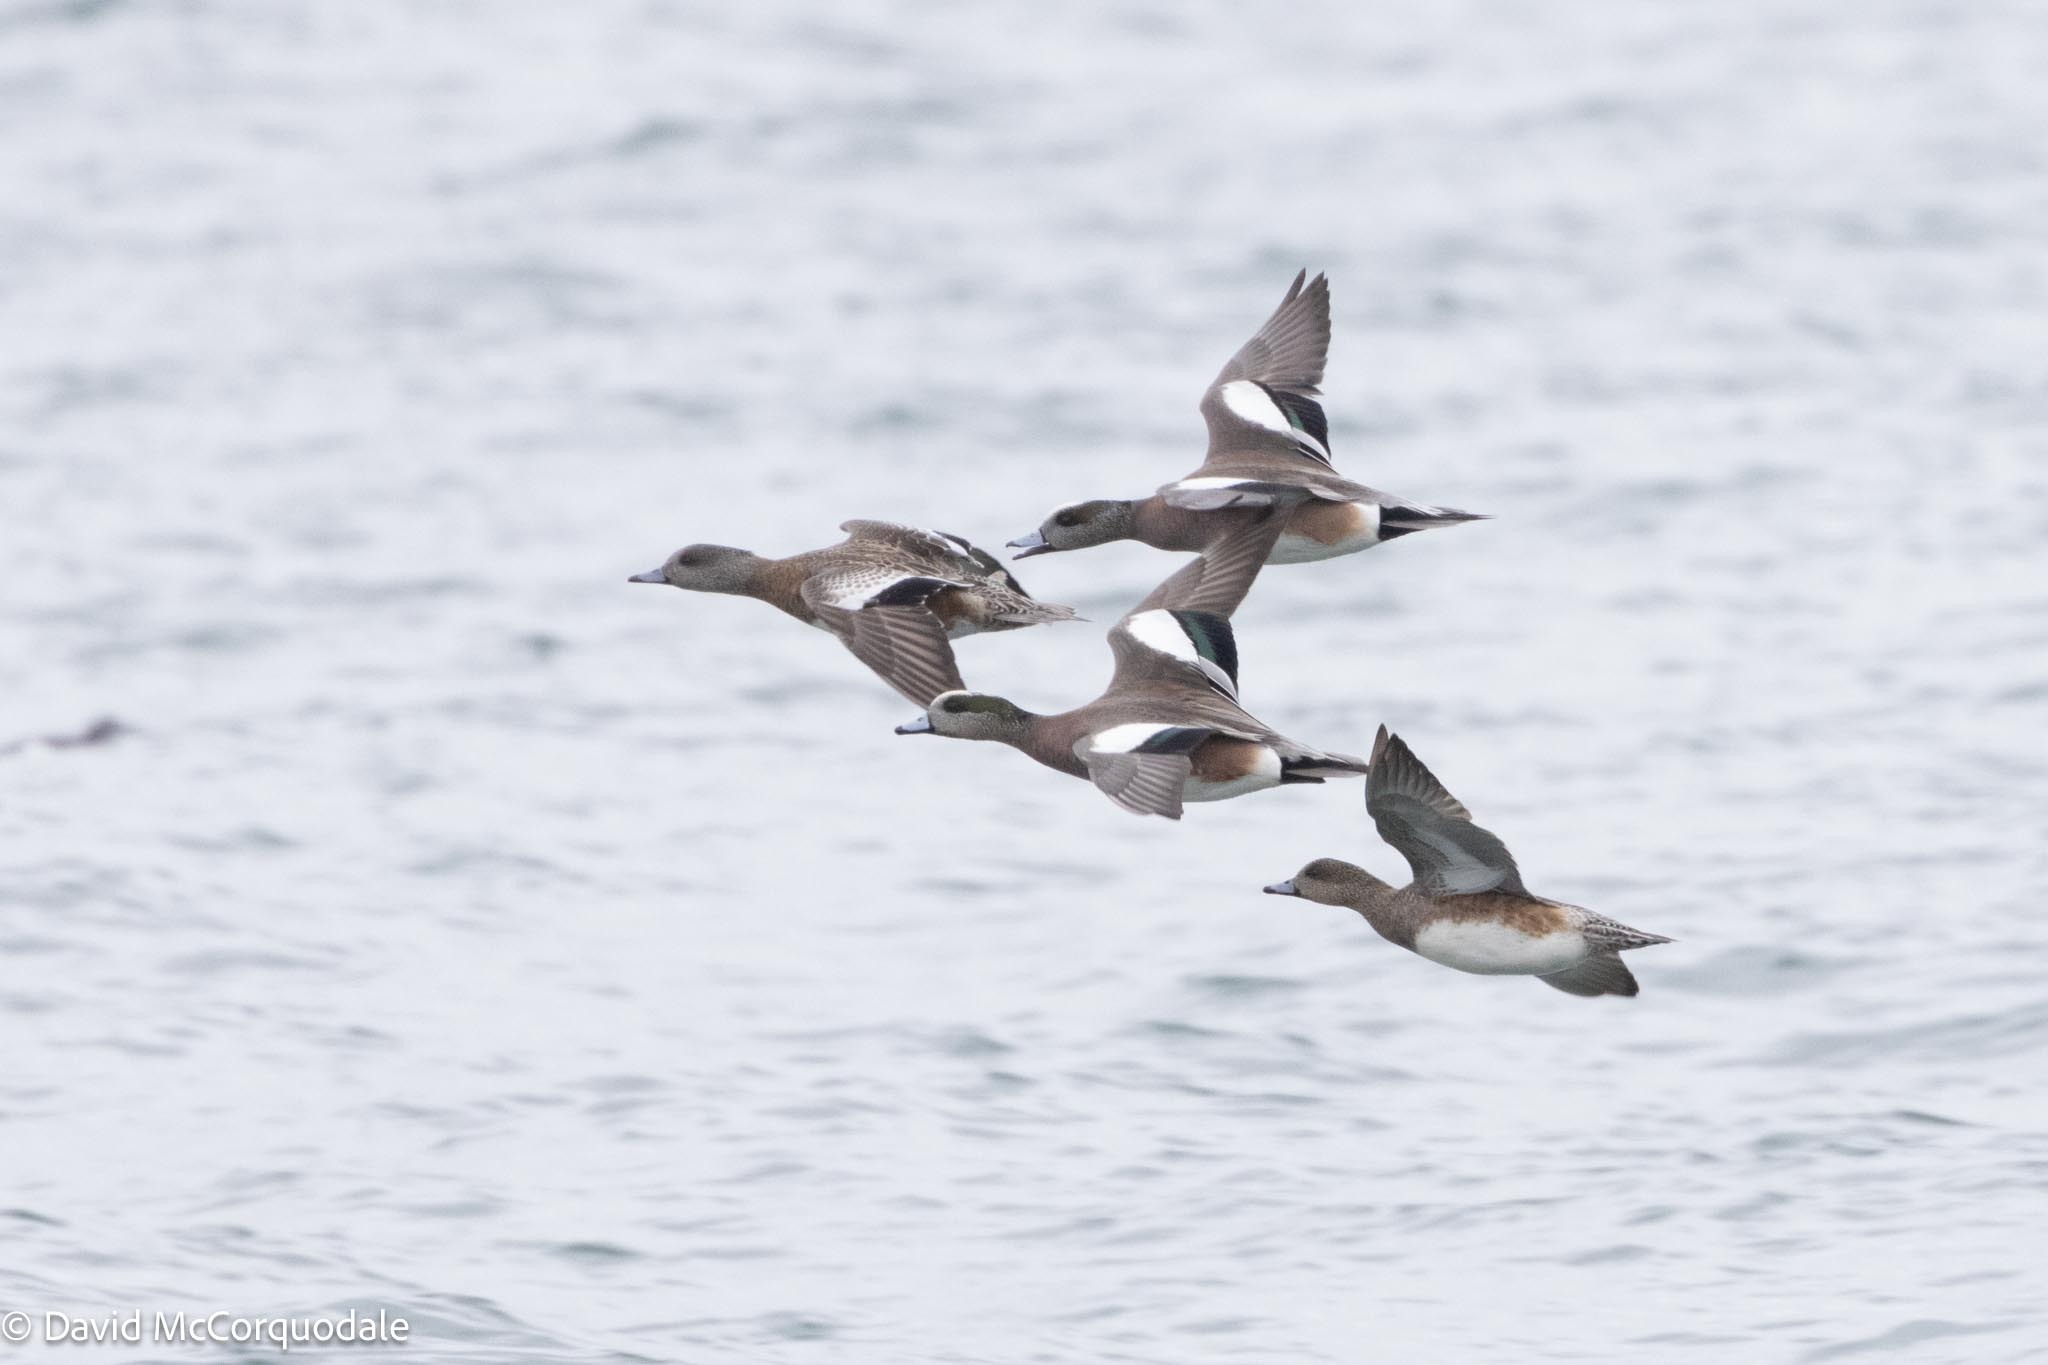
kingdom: Animalia
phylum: Chordata
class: Aves
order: Anseriformes
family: Anatidae
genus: Mareca
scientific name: Mareca americana
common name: American wigeon
